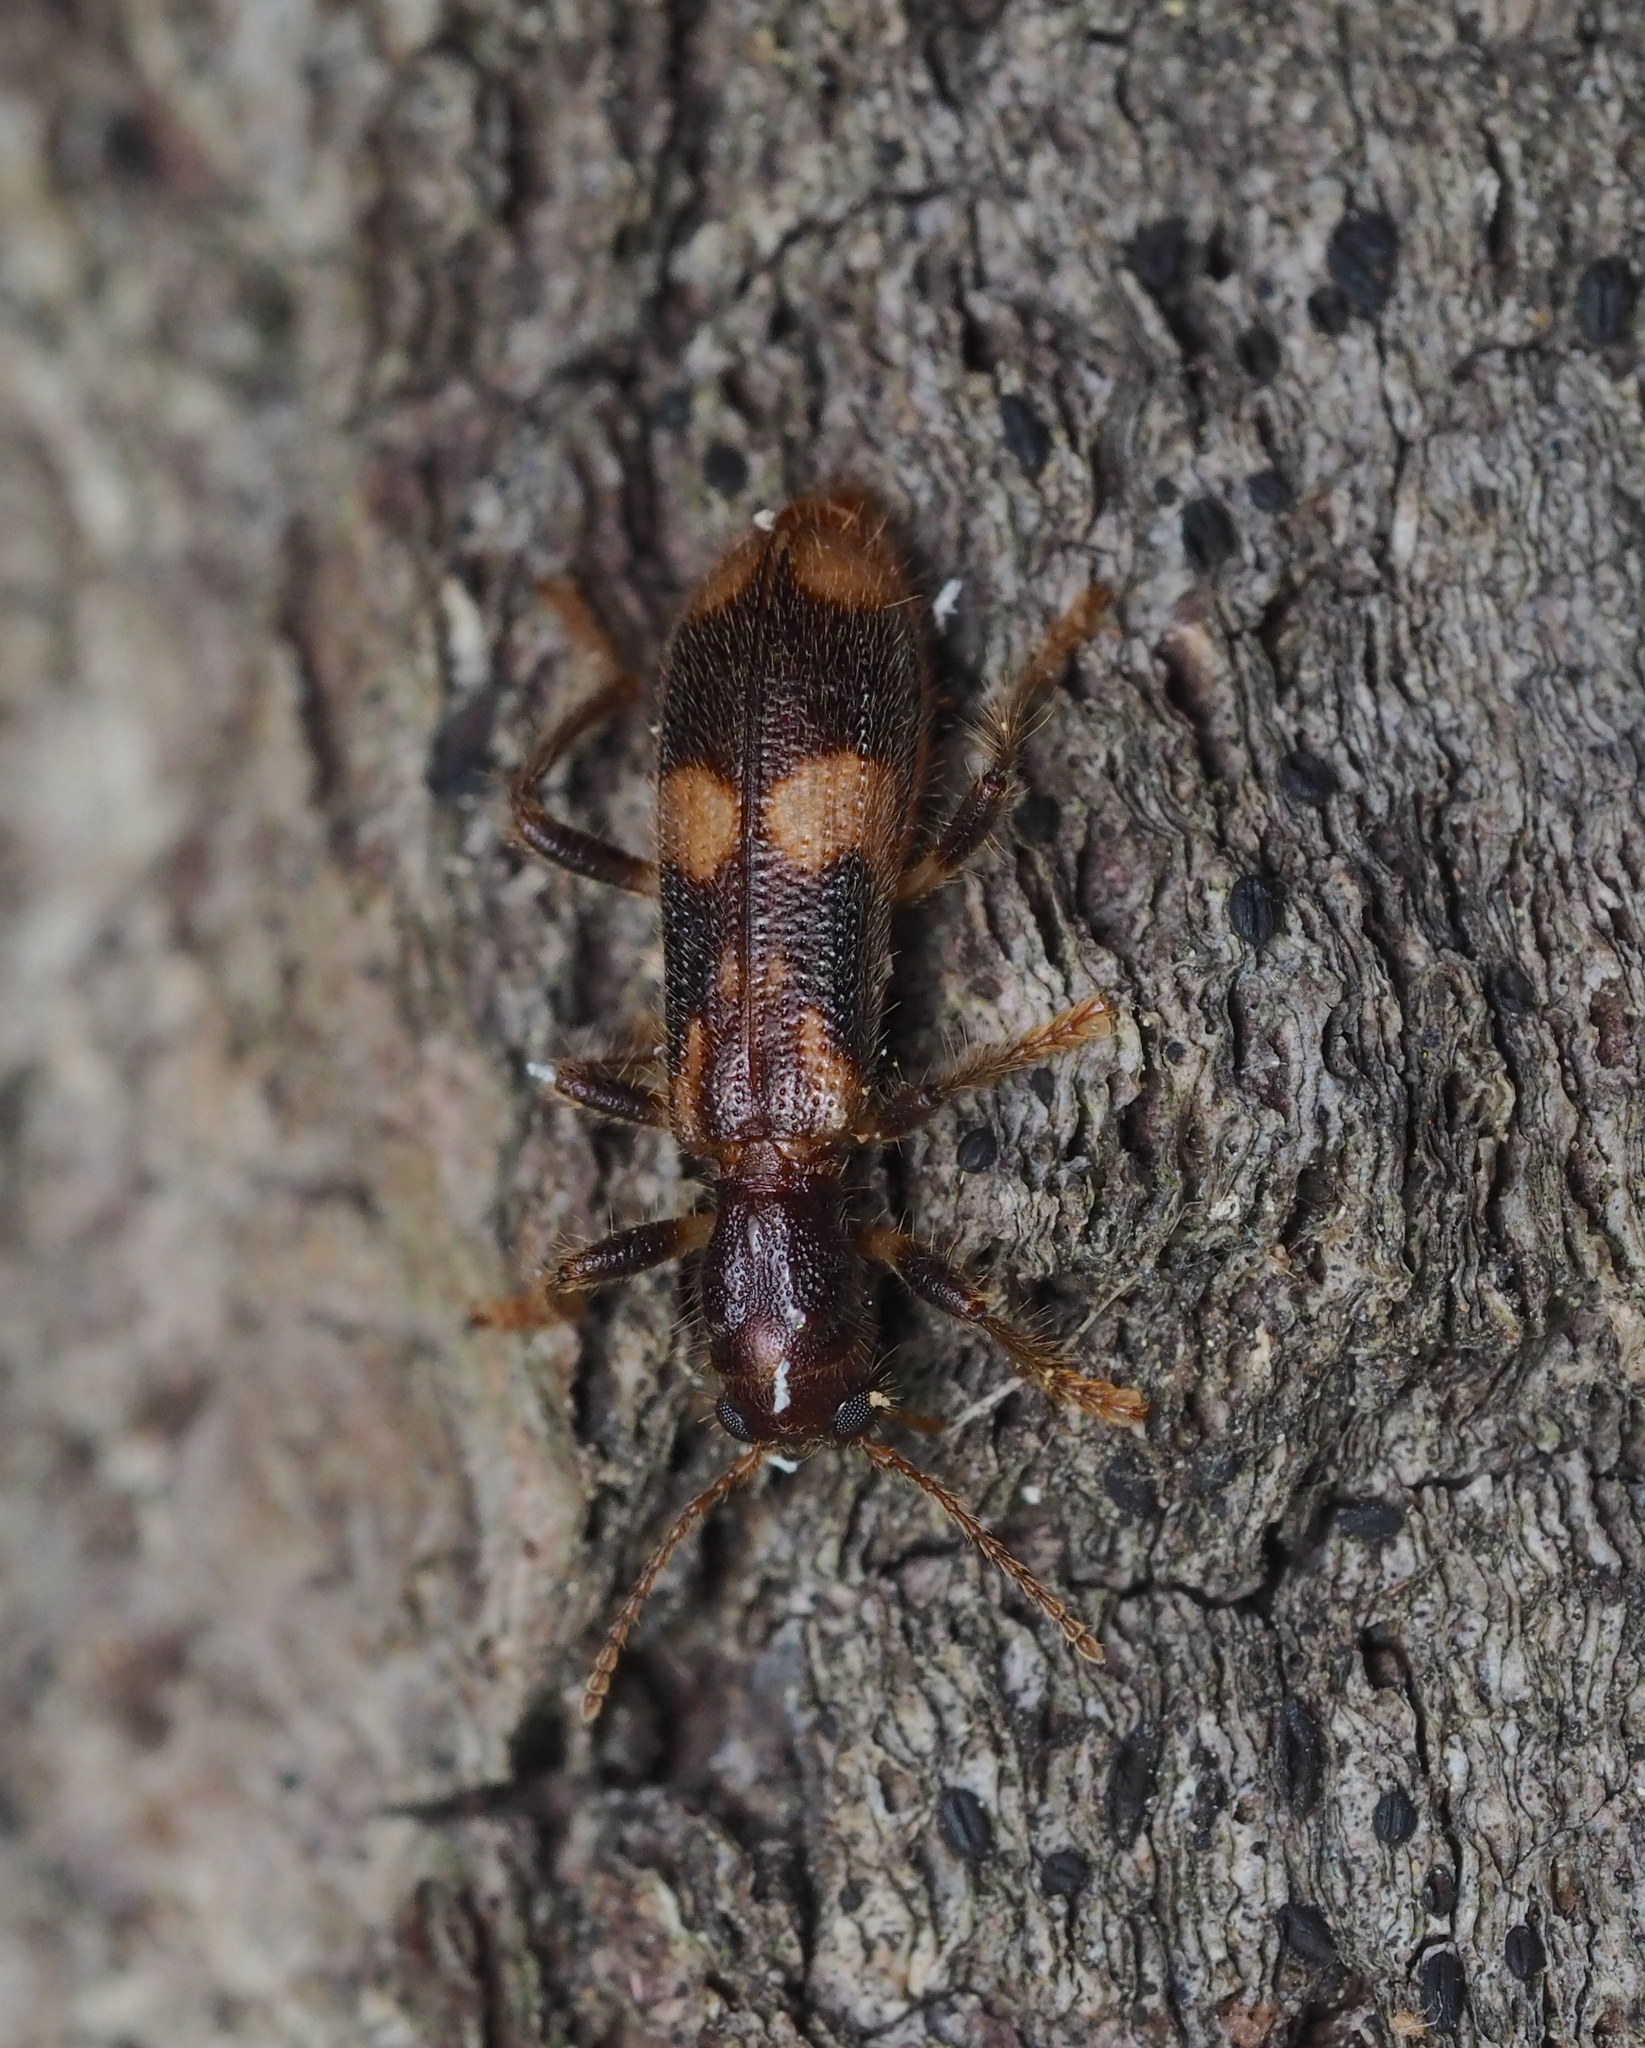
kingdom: Animalia
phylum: Arthropoda
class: Insecta
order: Coleoptera
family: Cleridae
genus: Opilo
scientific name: Opilo mollis
